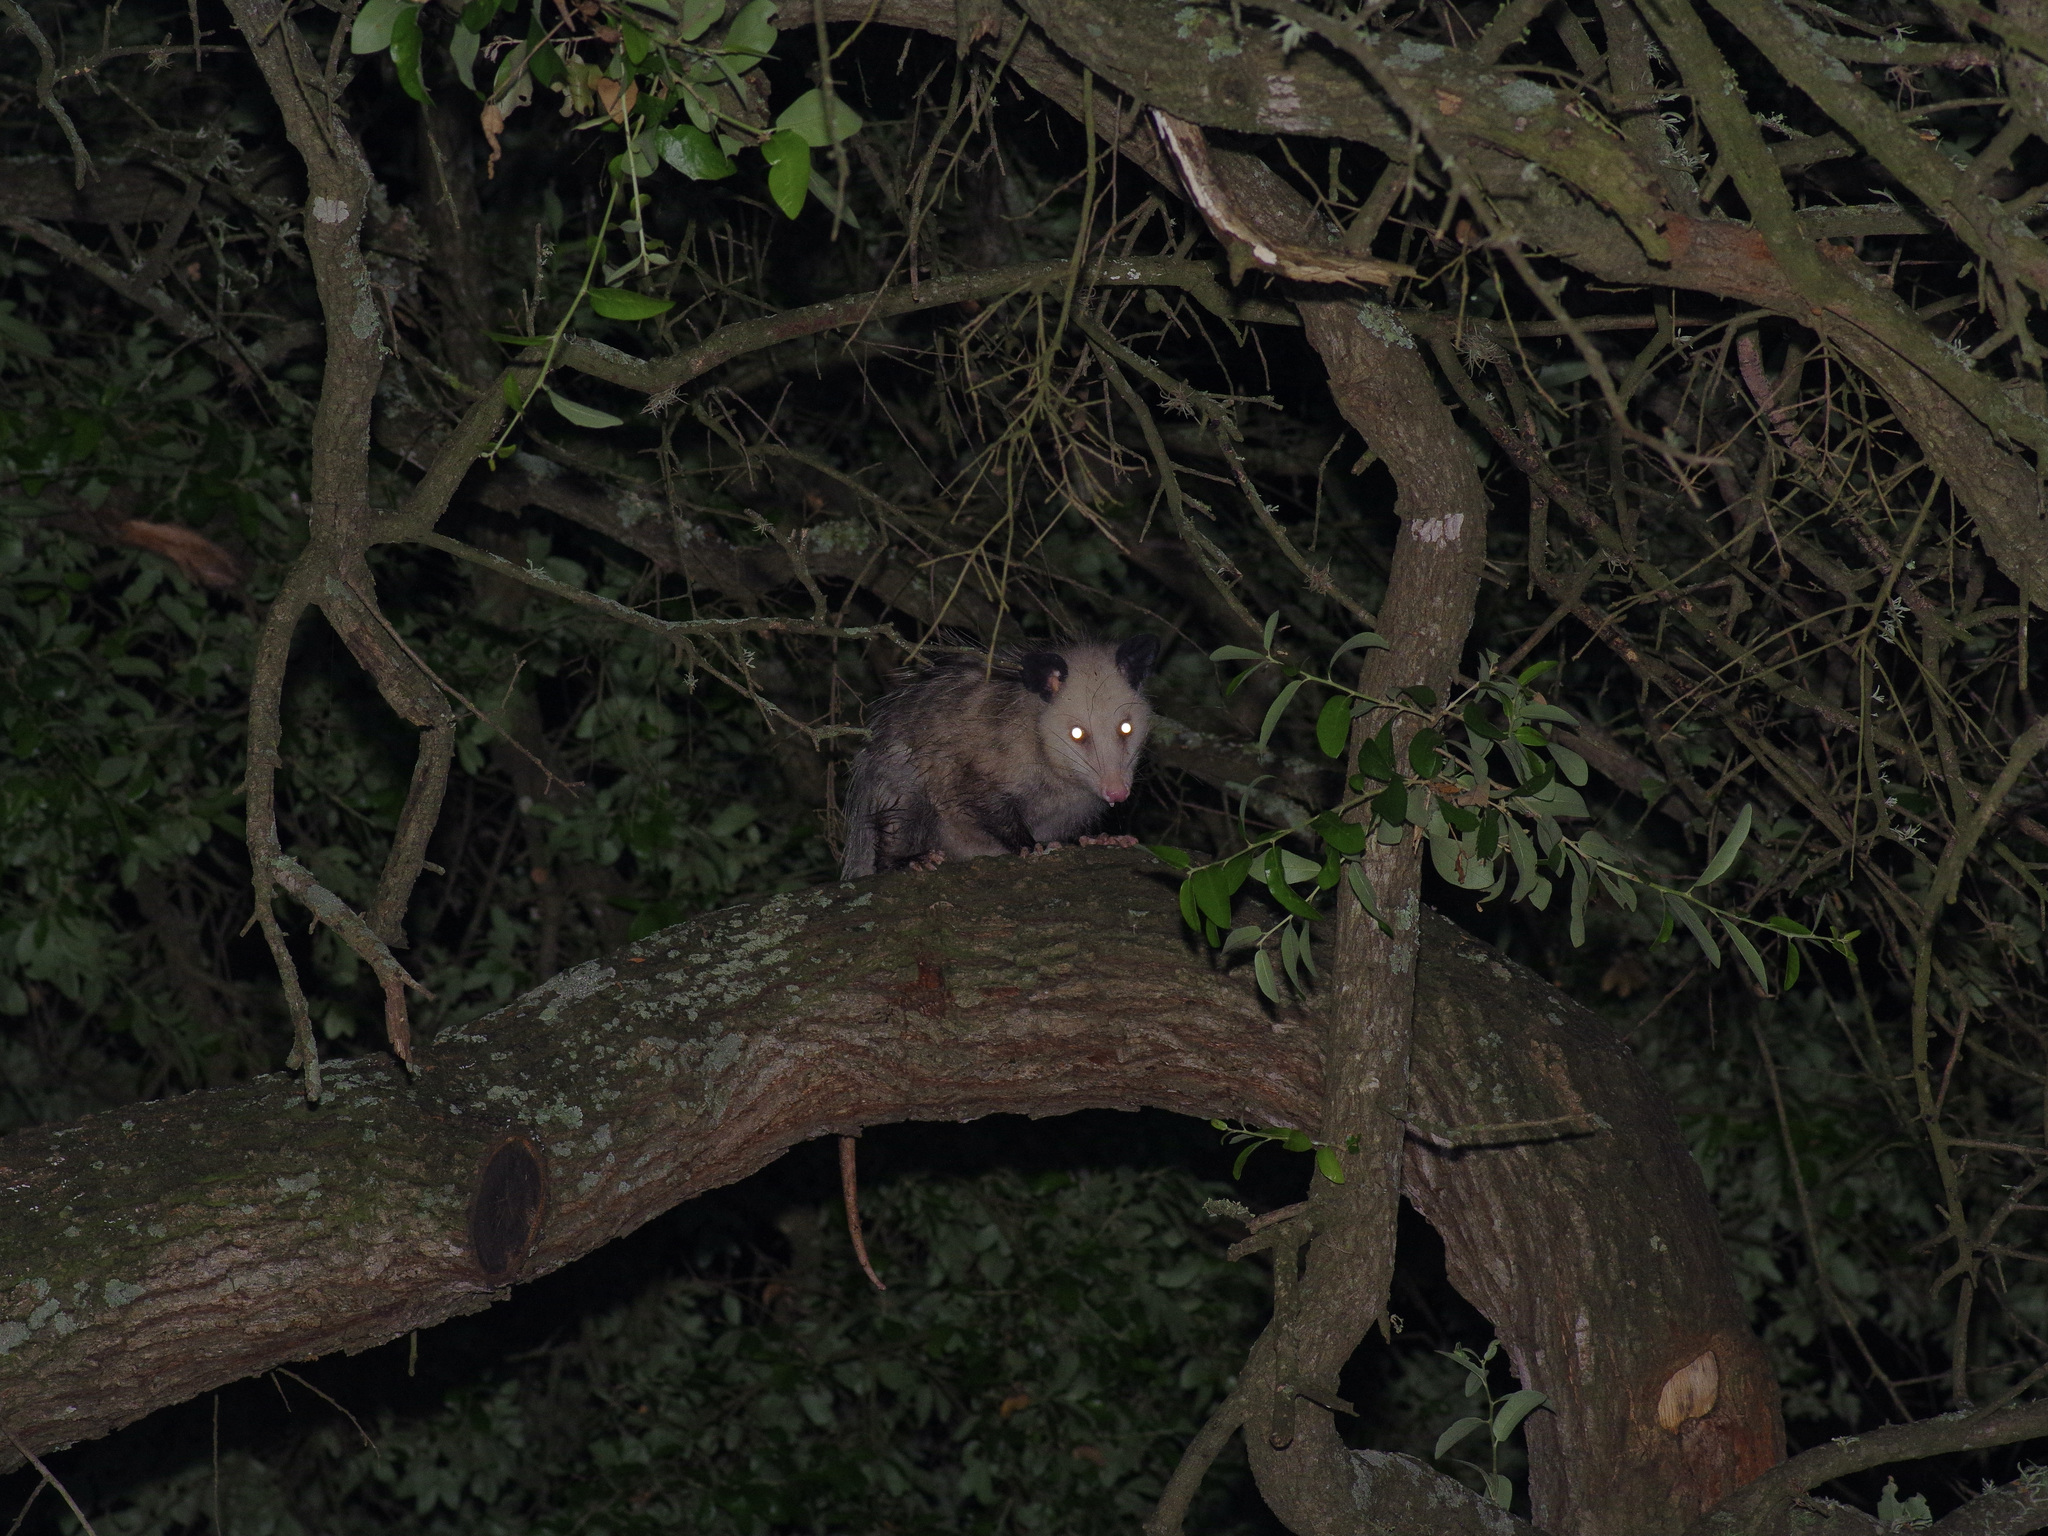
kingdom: Animalia
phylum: Chordata
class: Mammalia
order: Didelphimorphia
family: Didelphidae
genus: Didelphis
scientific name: Didelphis virginiana
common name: Virginia opossum
